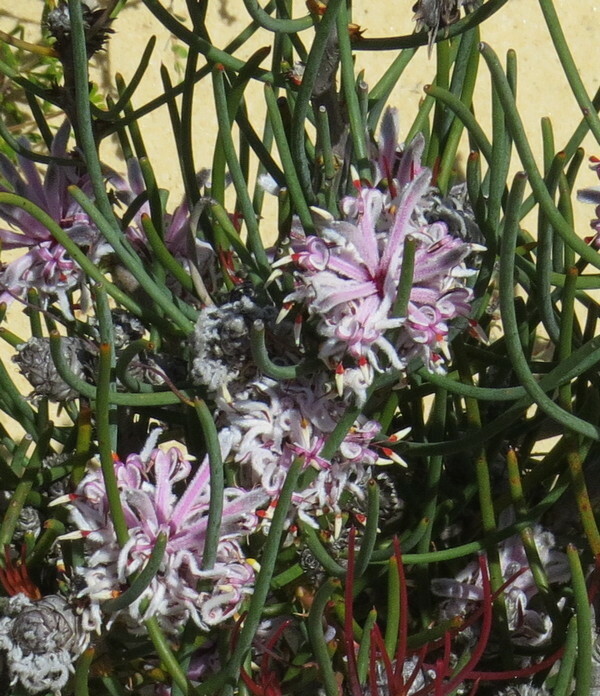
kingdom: Plantae
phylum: Tracheophyta
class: Magnoliopsida
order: Proteales
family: Proteaceae
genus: Petrophile
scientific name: Petrophile teretifolia
